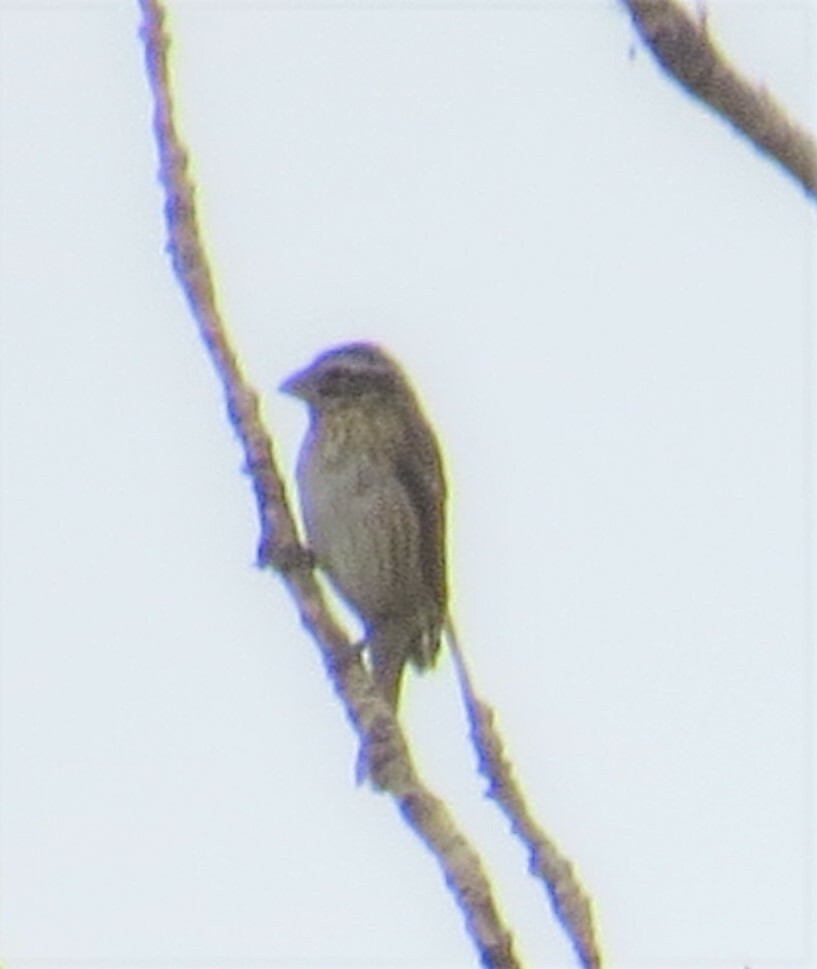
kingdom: Animalia
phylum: Chordata
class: Aves
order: Passeriformes
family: Cardinalidae
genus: Pheucticus
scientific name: Pheucticus ludovicianus
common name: Rose-breasted grosbeak
